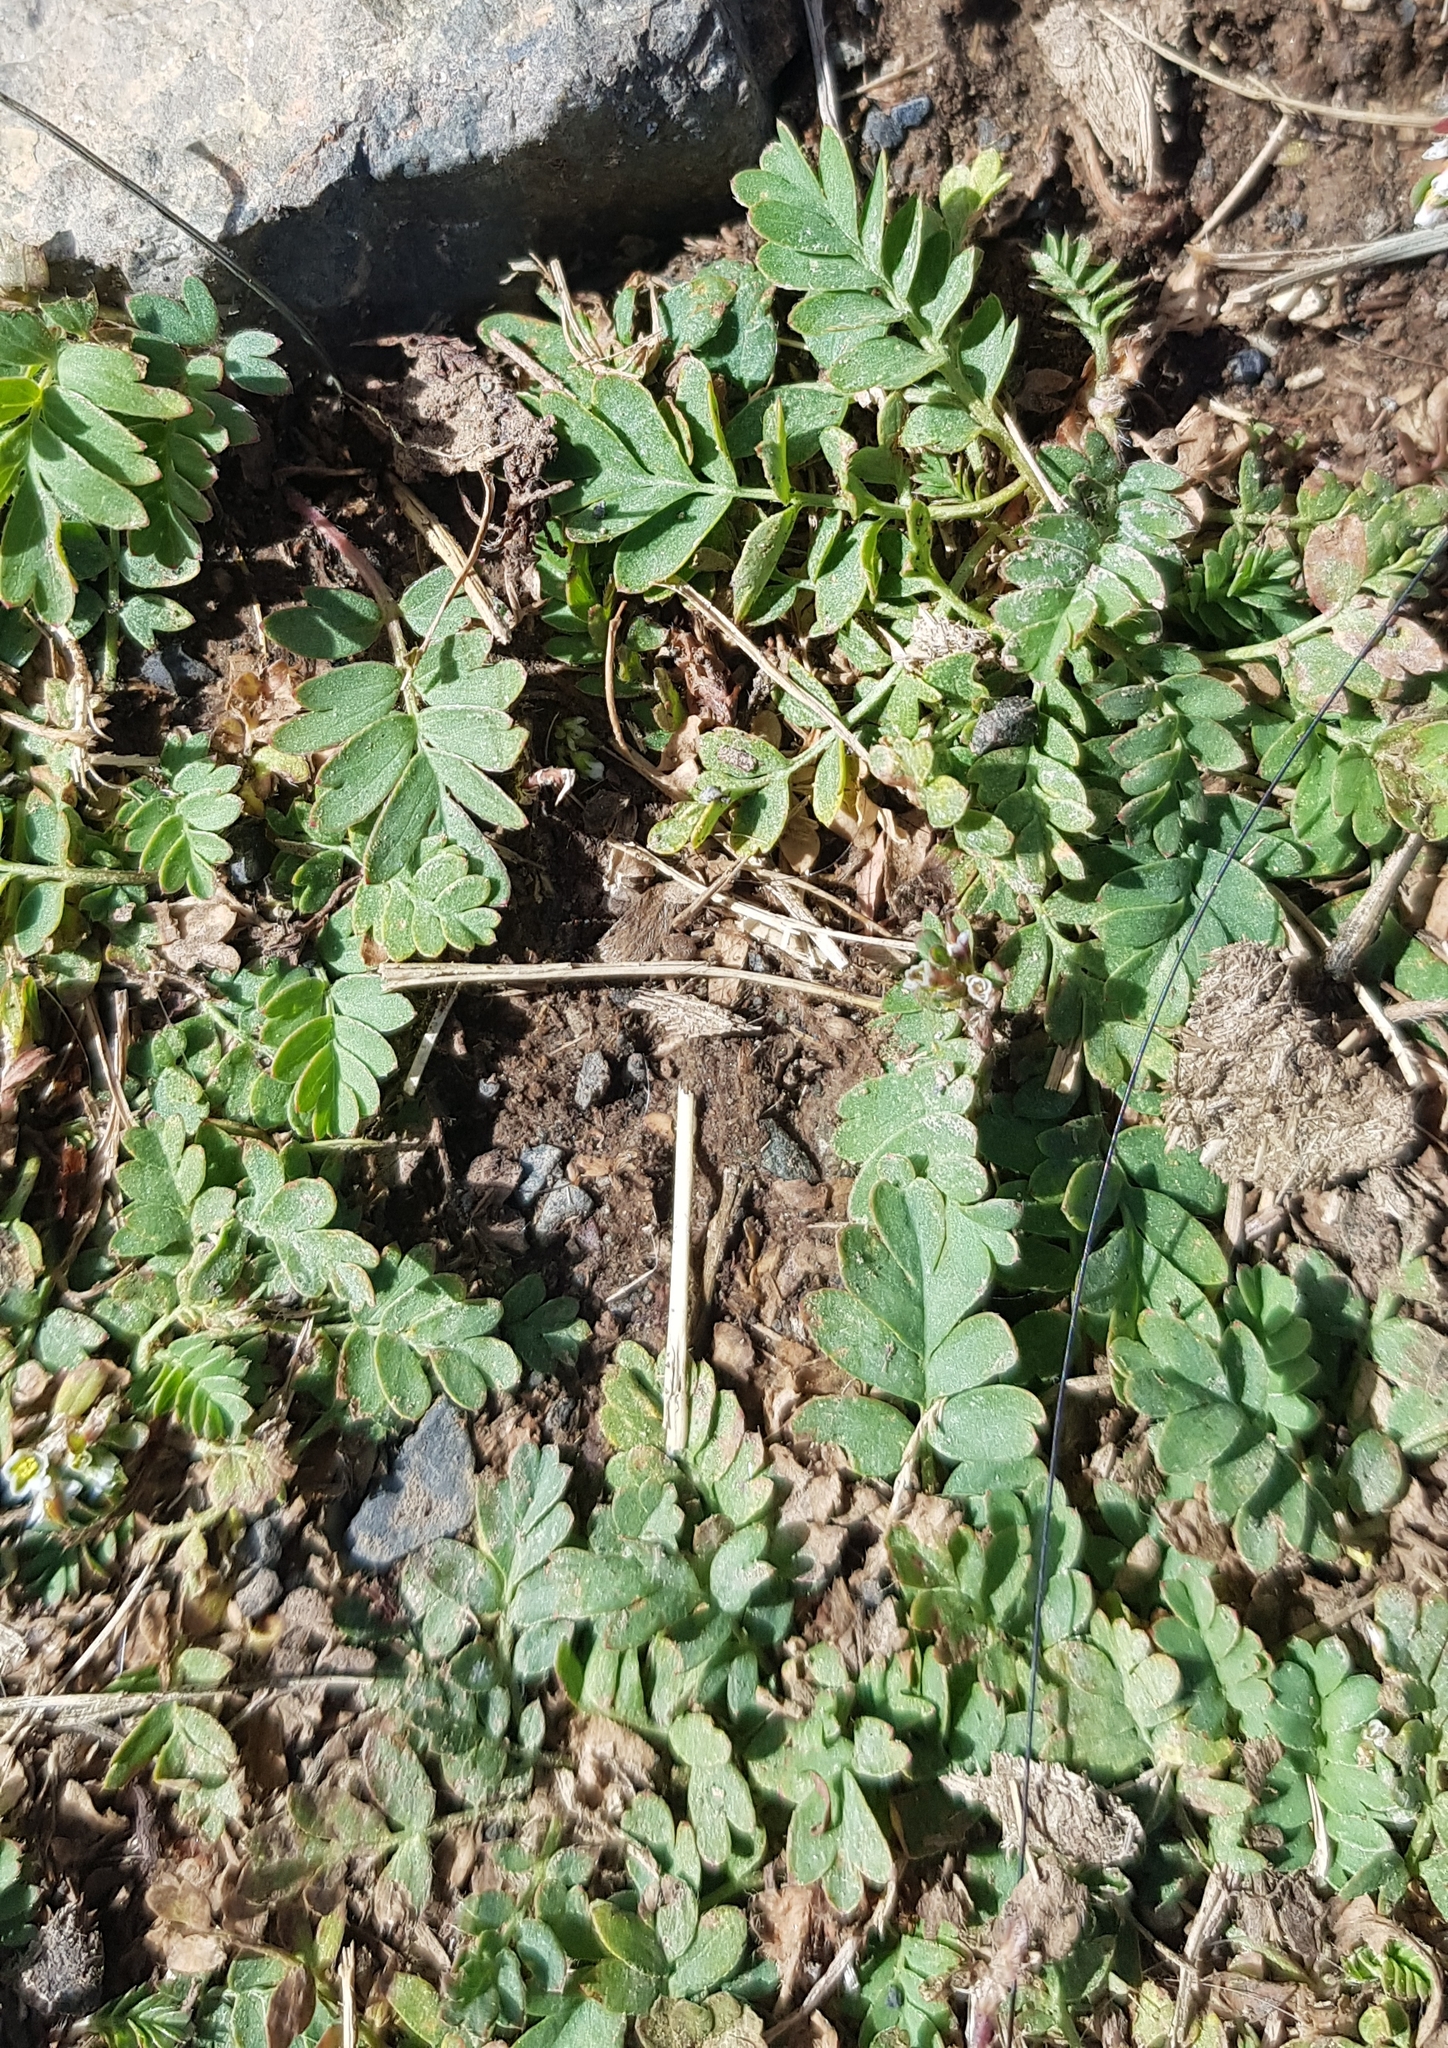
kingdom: Plantae
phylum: Tracheophyta
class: Magnoliopsida
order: Rosales
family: Rosaceae
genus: Sibbaldianthe
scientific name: Sibbaldianthe bifurca
